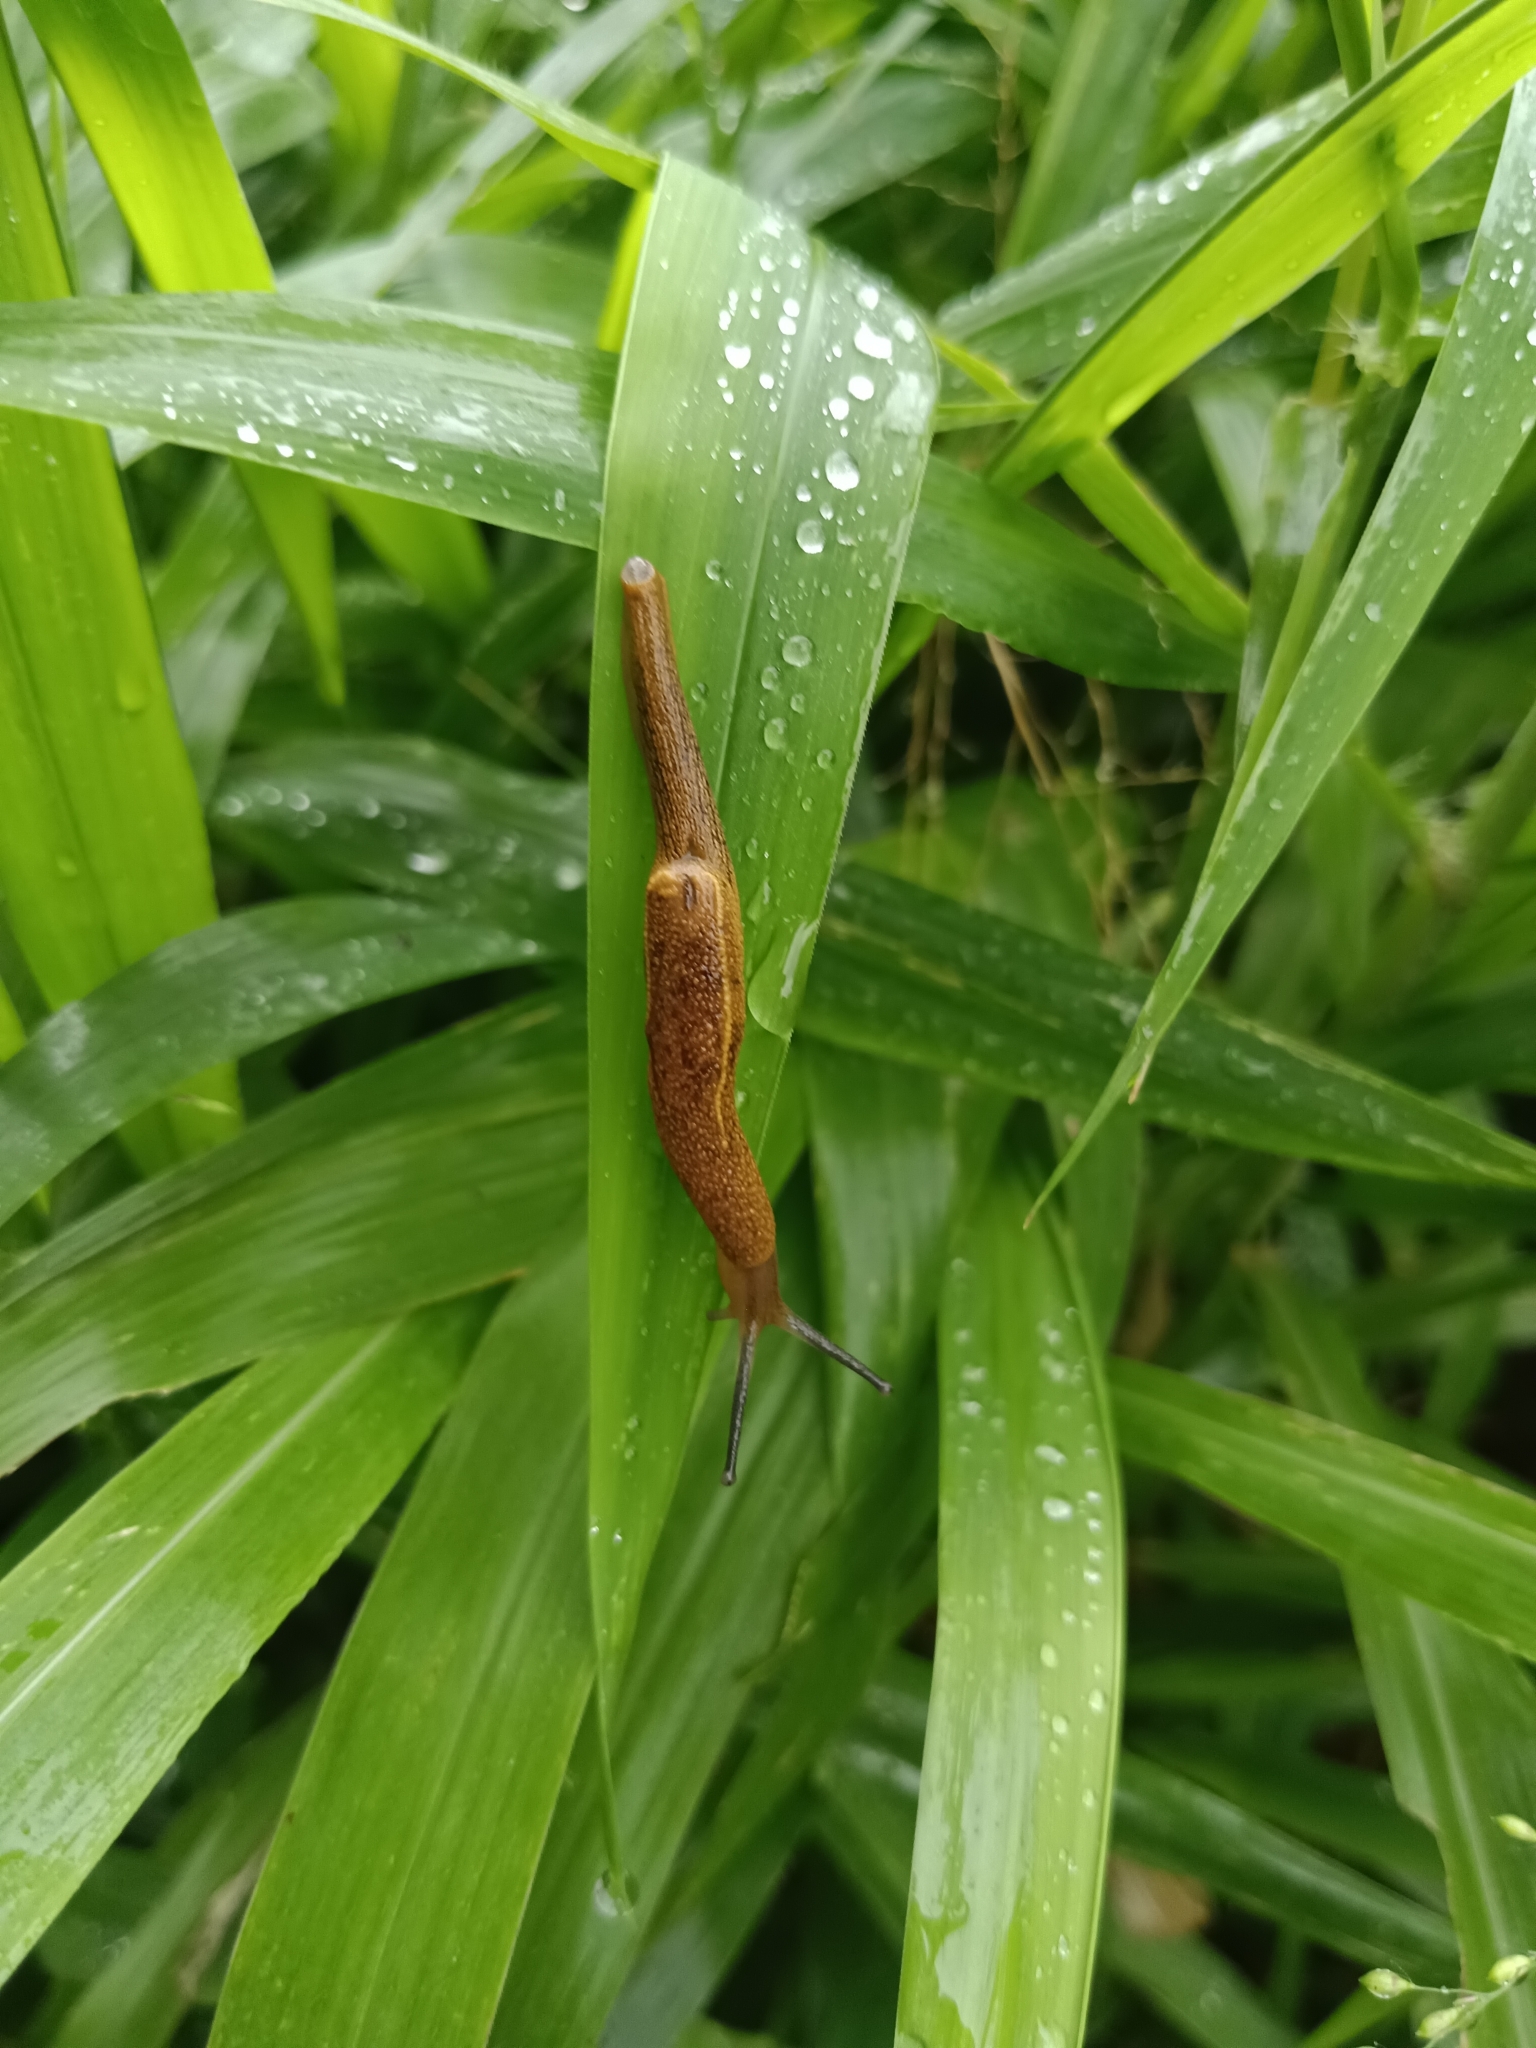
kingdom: Animalia
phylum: Mollusca
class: Gastropoda
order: Stylommatophora
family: Ariophantidae
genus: Mariaella
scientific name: Mariaella dussumieri
